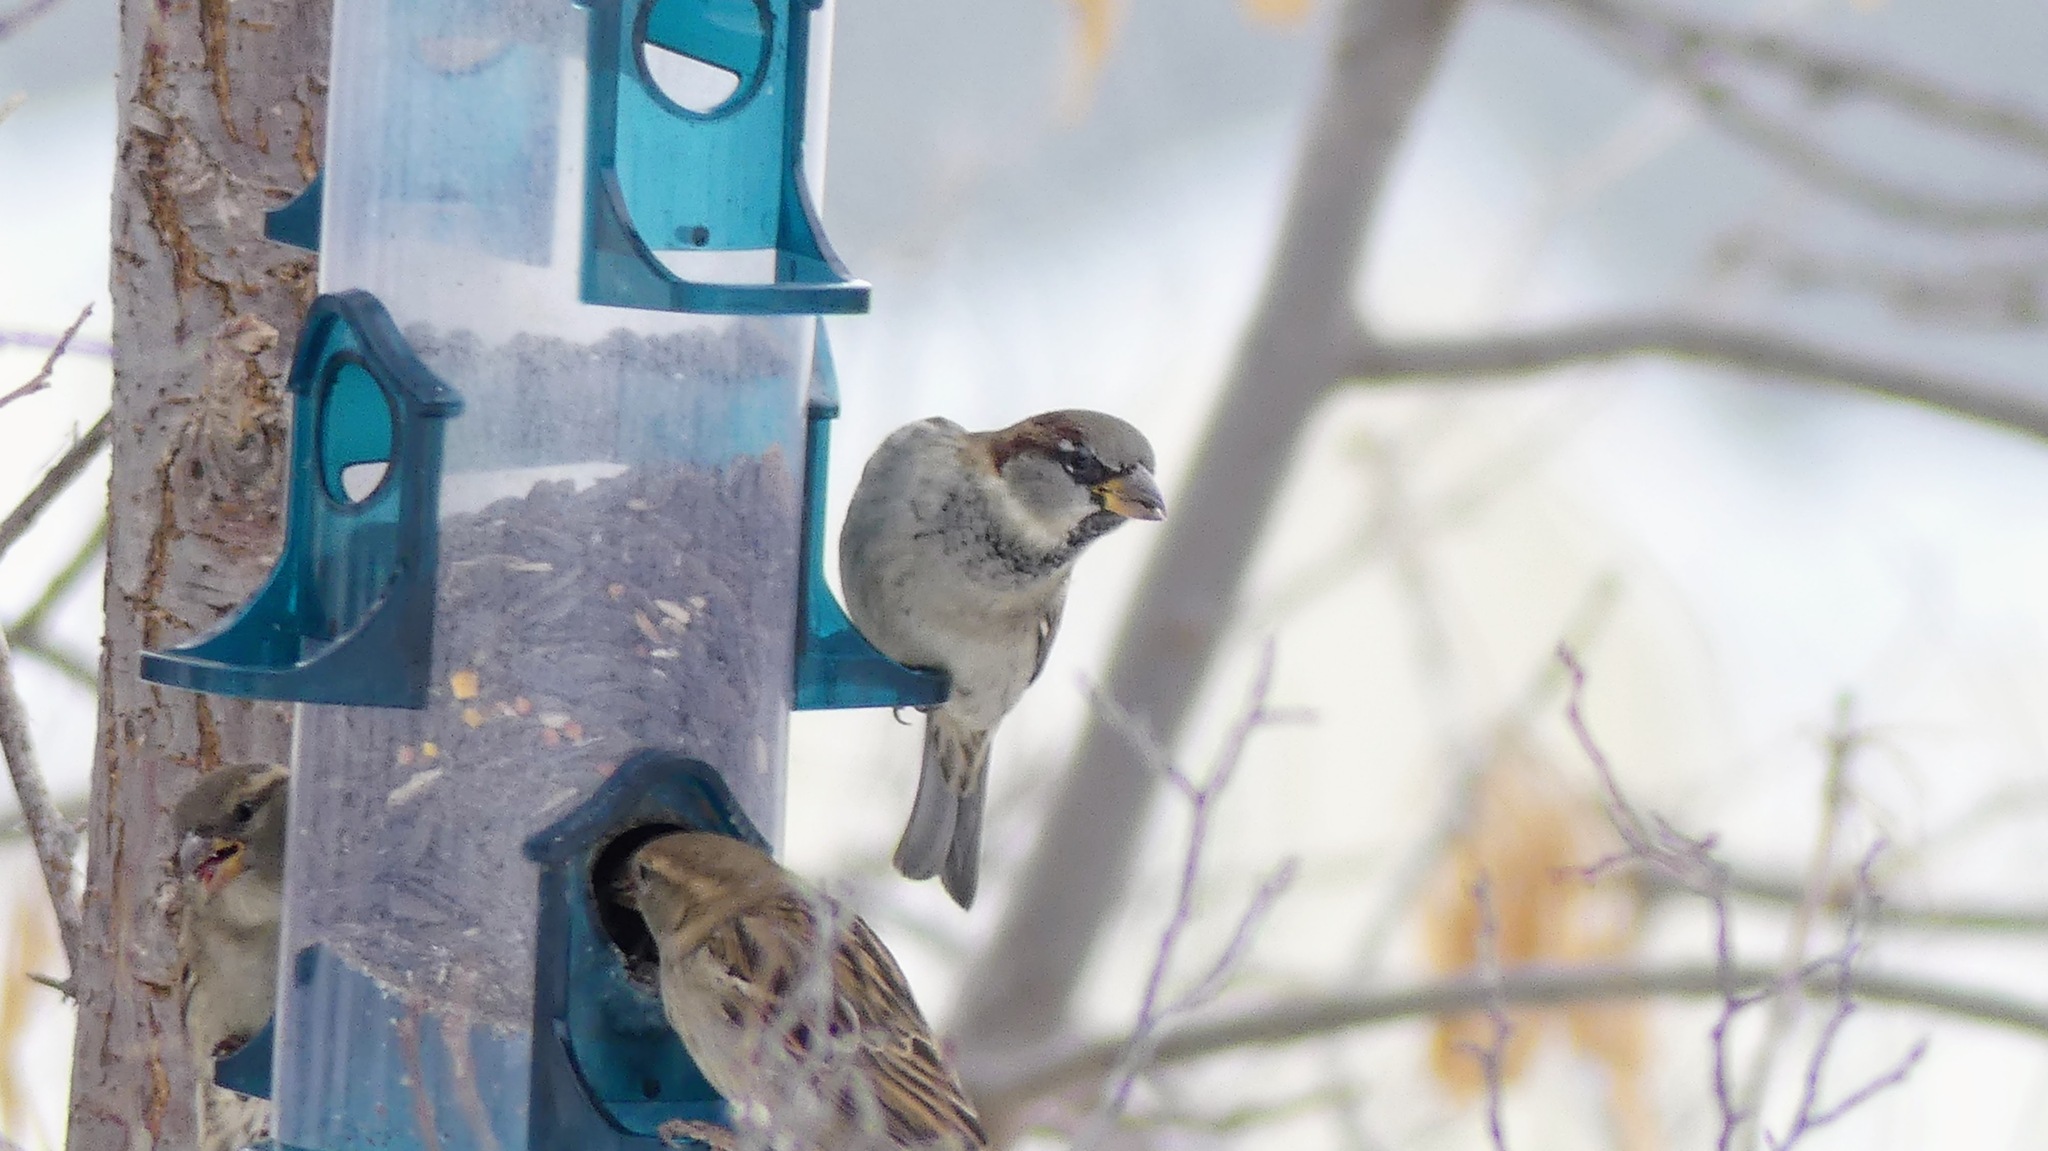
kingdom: Animalia
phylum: Chordata
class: Aves
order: Passeriformes
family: Passeridae
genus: Passer
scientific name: Passer domesticus
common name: House sparrow
